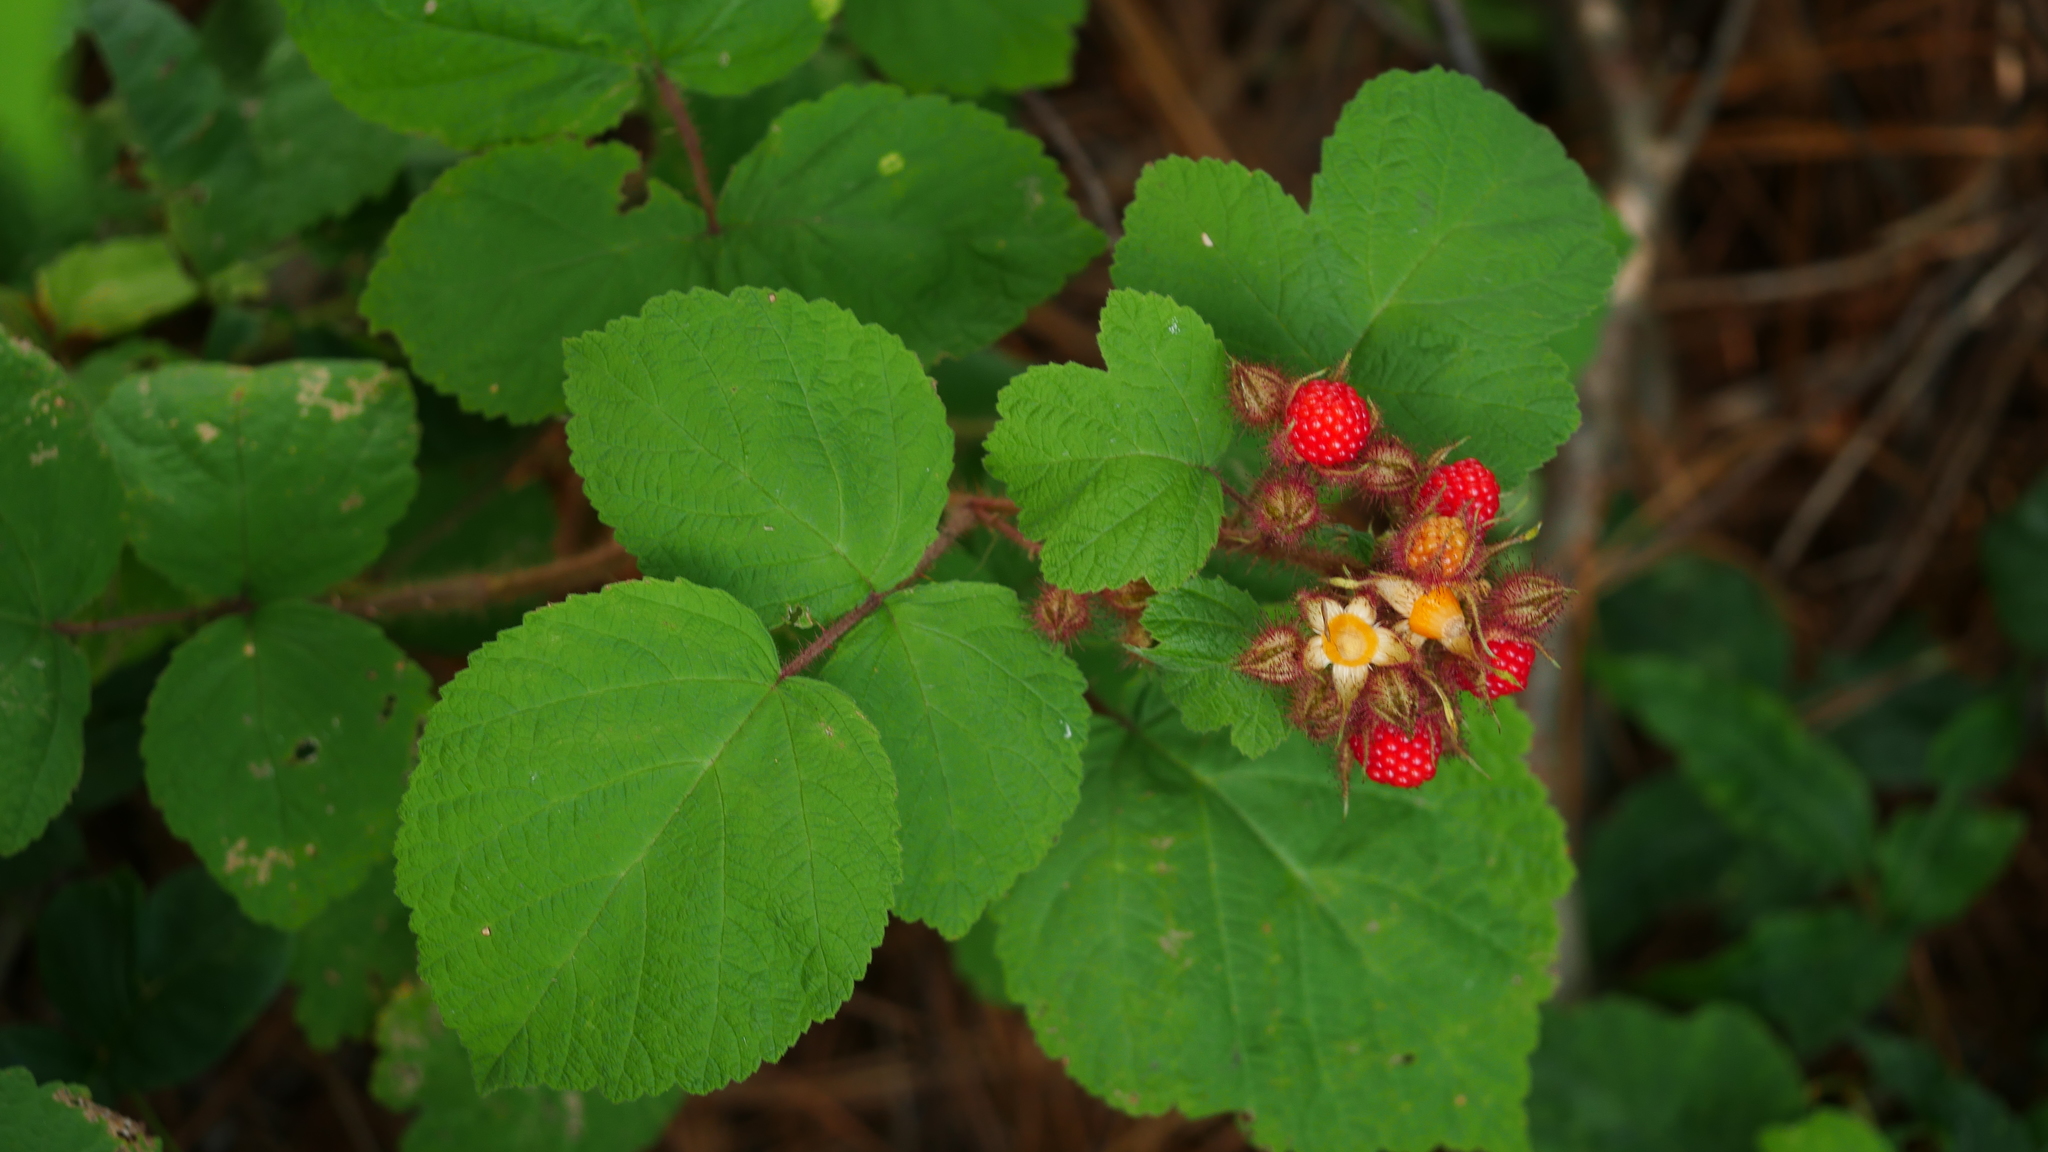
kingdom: Plantae
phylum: Tracheophyta
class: Magnoliopsida
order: Rosales
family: Rosaceae
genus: Rubus
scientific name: Rubus phoenicolasius
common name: Japanese wineberry
